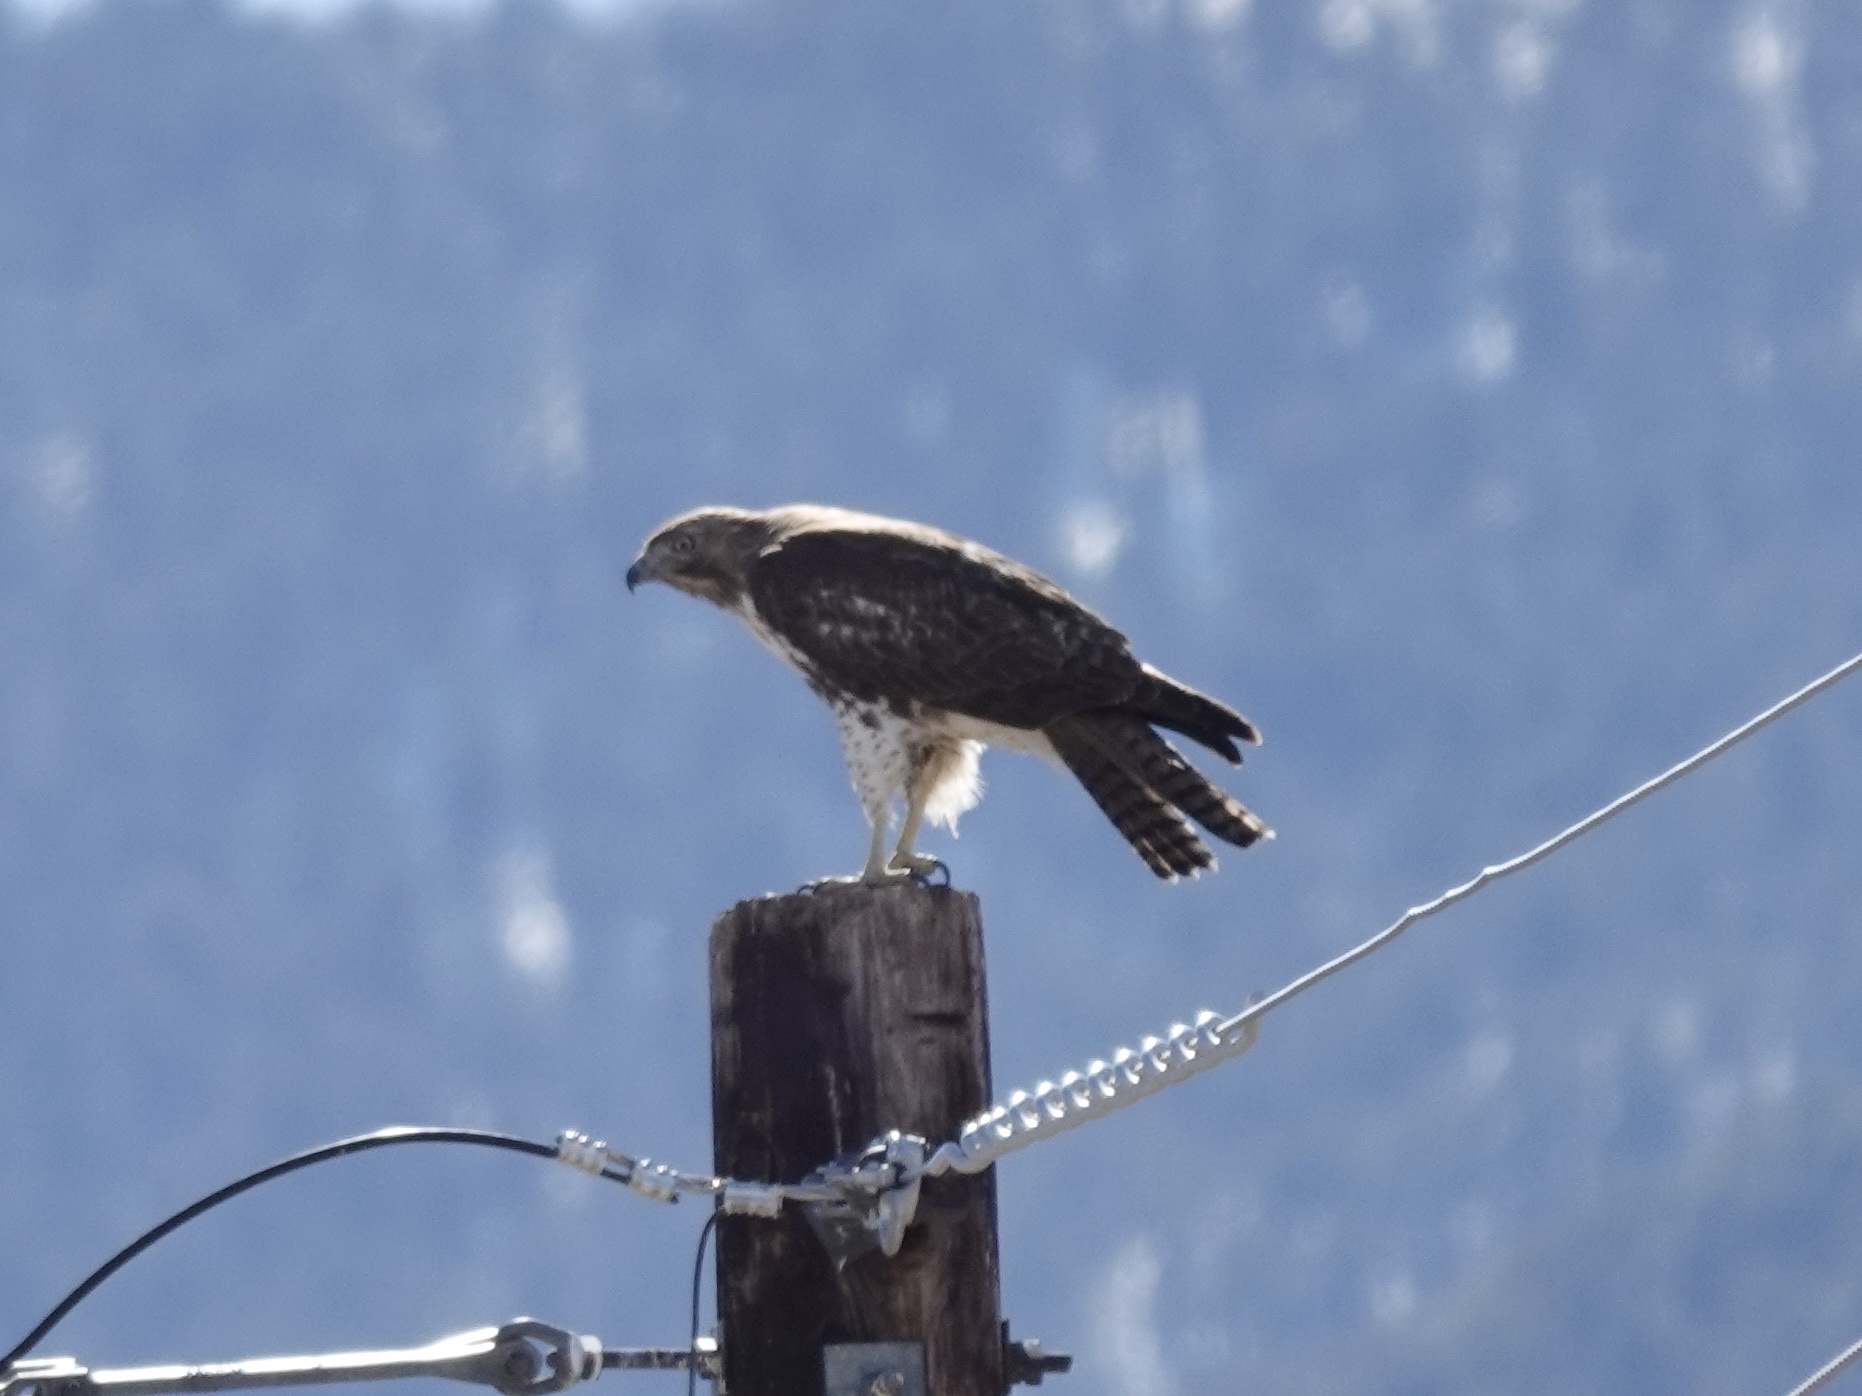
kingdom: Animalia
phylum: Chordata
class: Aves
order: Accipitriformes
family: Accipitridae
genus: Buteo
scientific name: Buteo jamaicensis
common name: Red-tailed hawk
